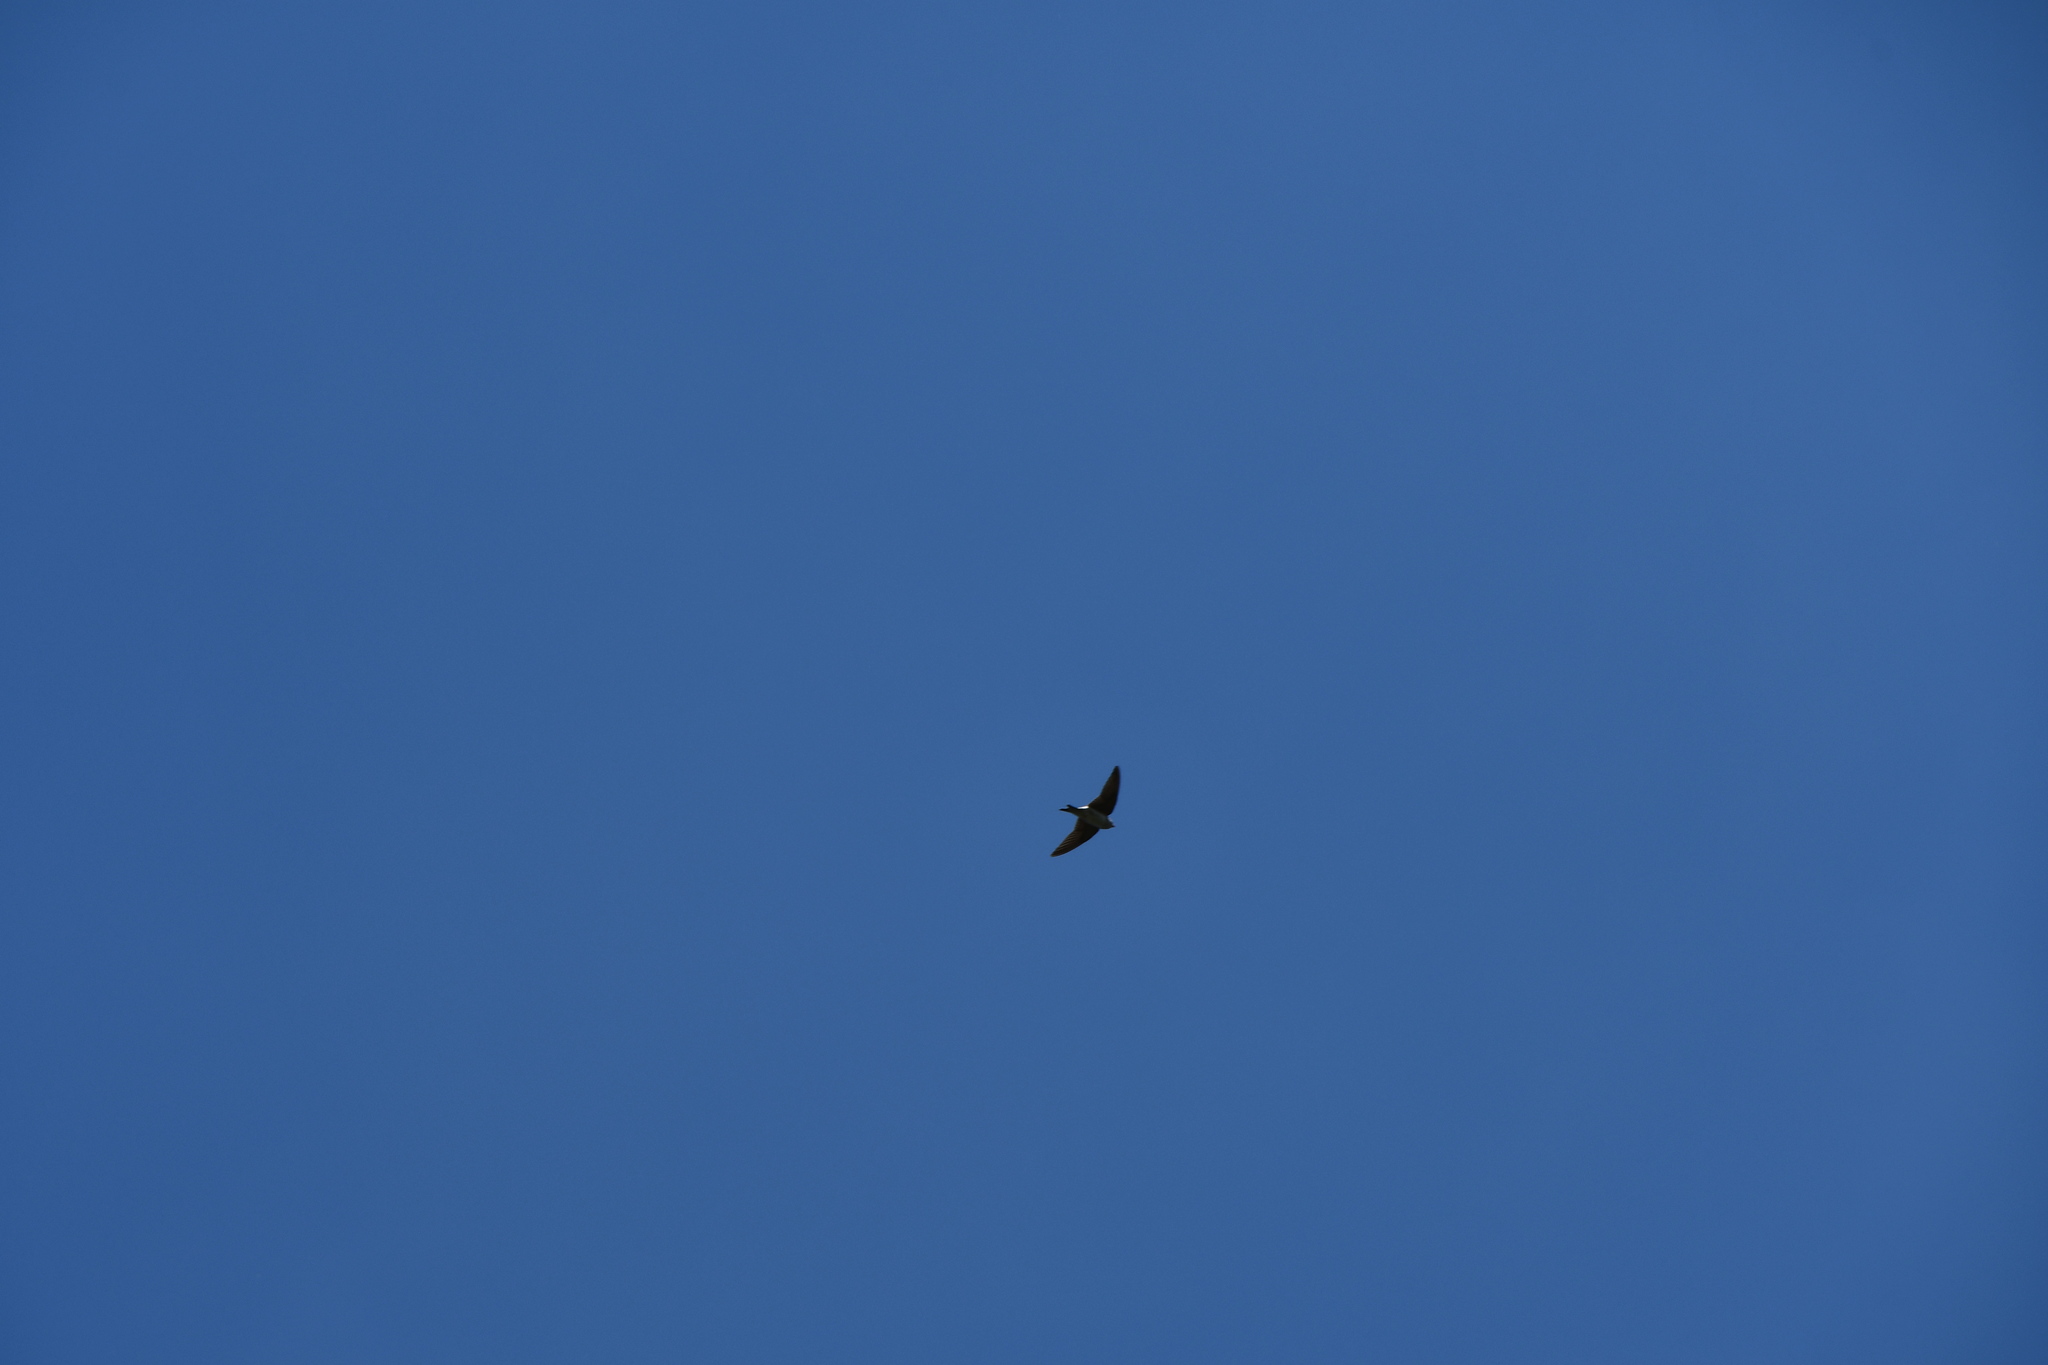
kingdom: Animalia
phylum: Chordata
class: Aves
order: Passeriformes
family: Hirundinidae
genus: Delichon
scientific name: Delichon urbicum
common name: Common house martin
